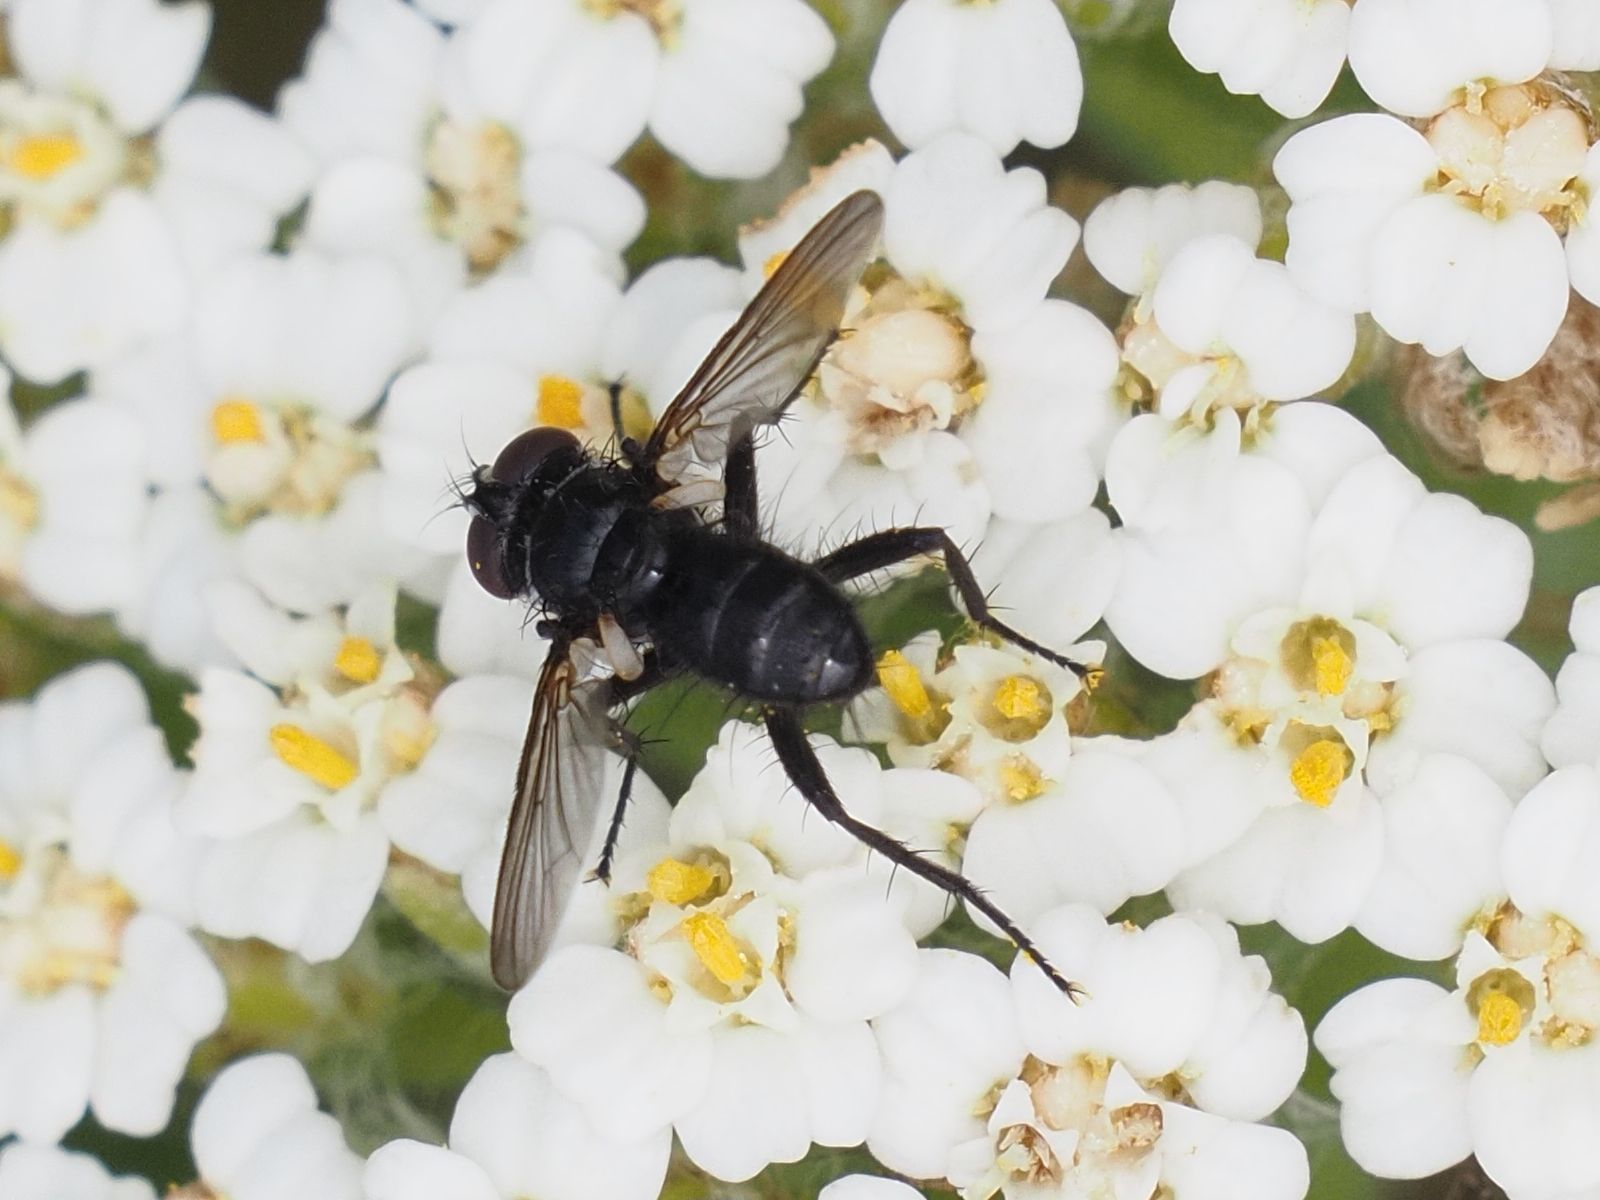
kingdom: Animalia
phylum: Arthropoda
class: Insecta
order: Diptera
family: Tachinidae
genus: Phania
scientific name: Phania funesta
